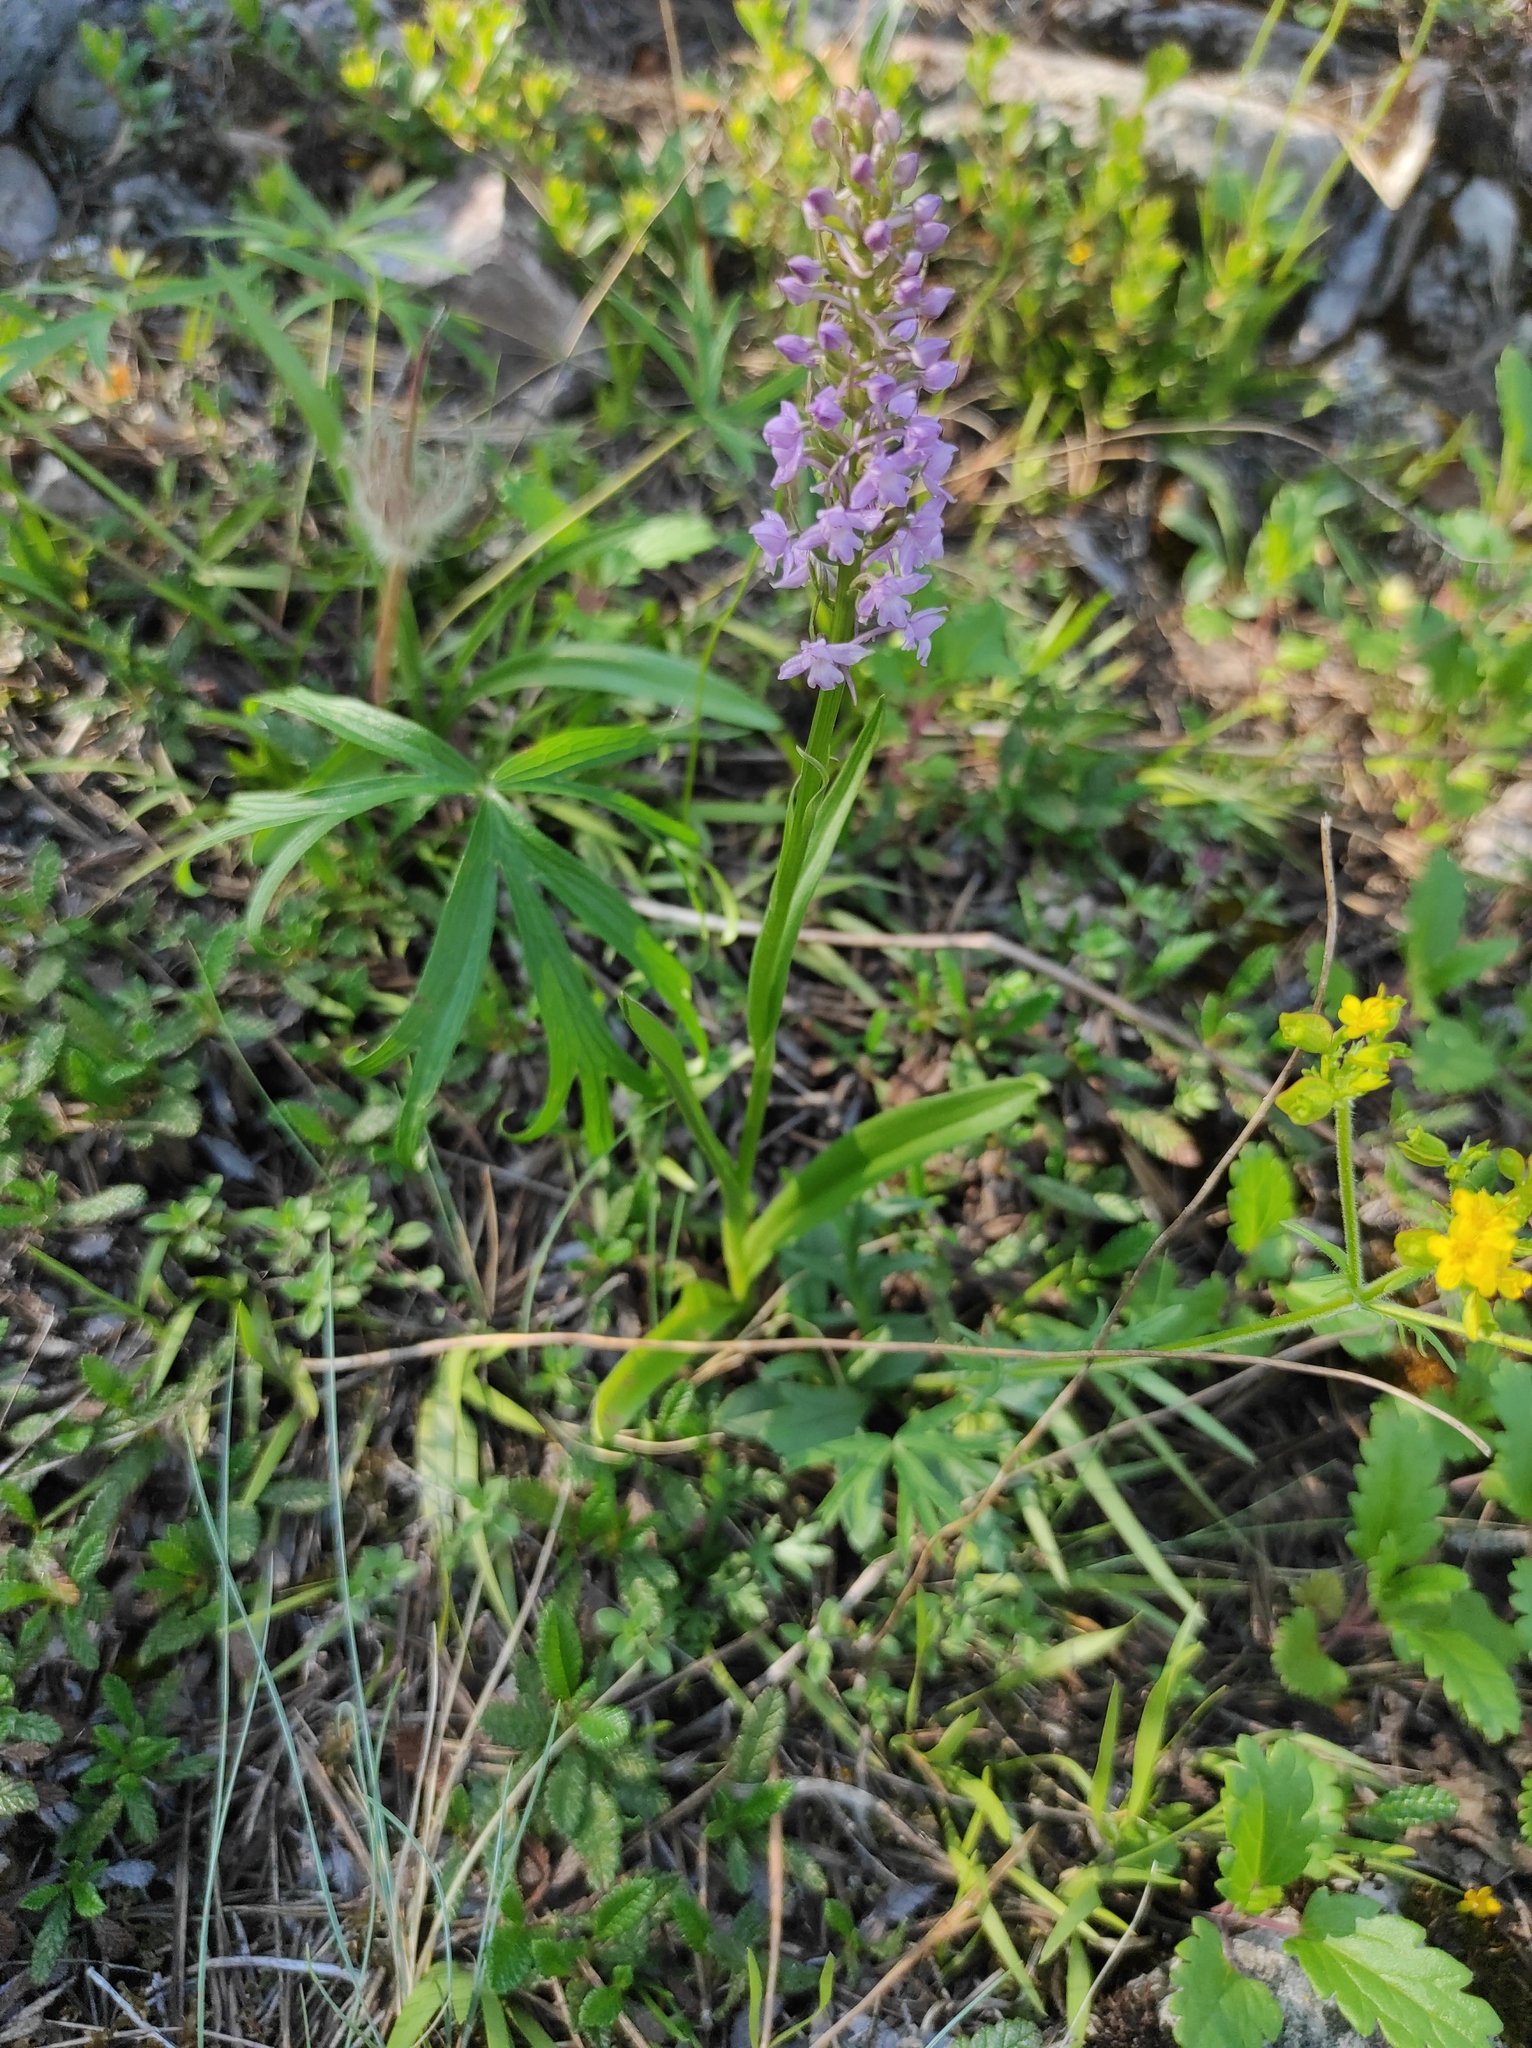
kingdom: Plantae
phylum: Tracheophyta
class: Liliopsida
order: Asparagales
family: Orchidaceae
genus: Gymnadenia
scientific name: Gymnadenia conopsea
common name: Fragrant orchid
